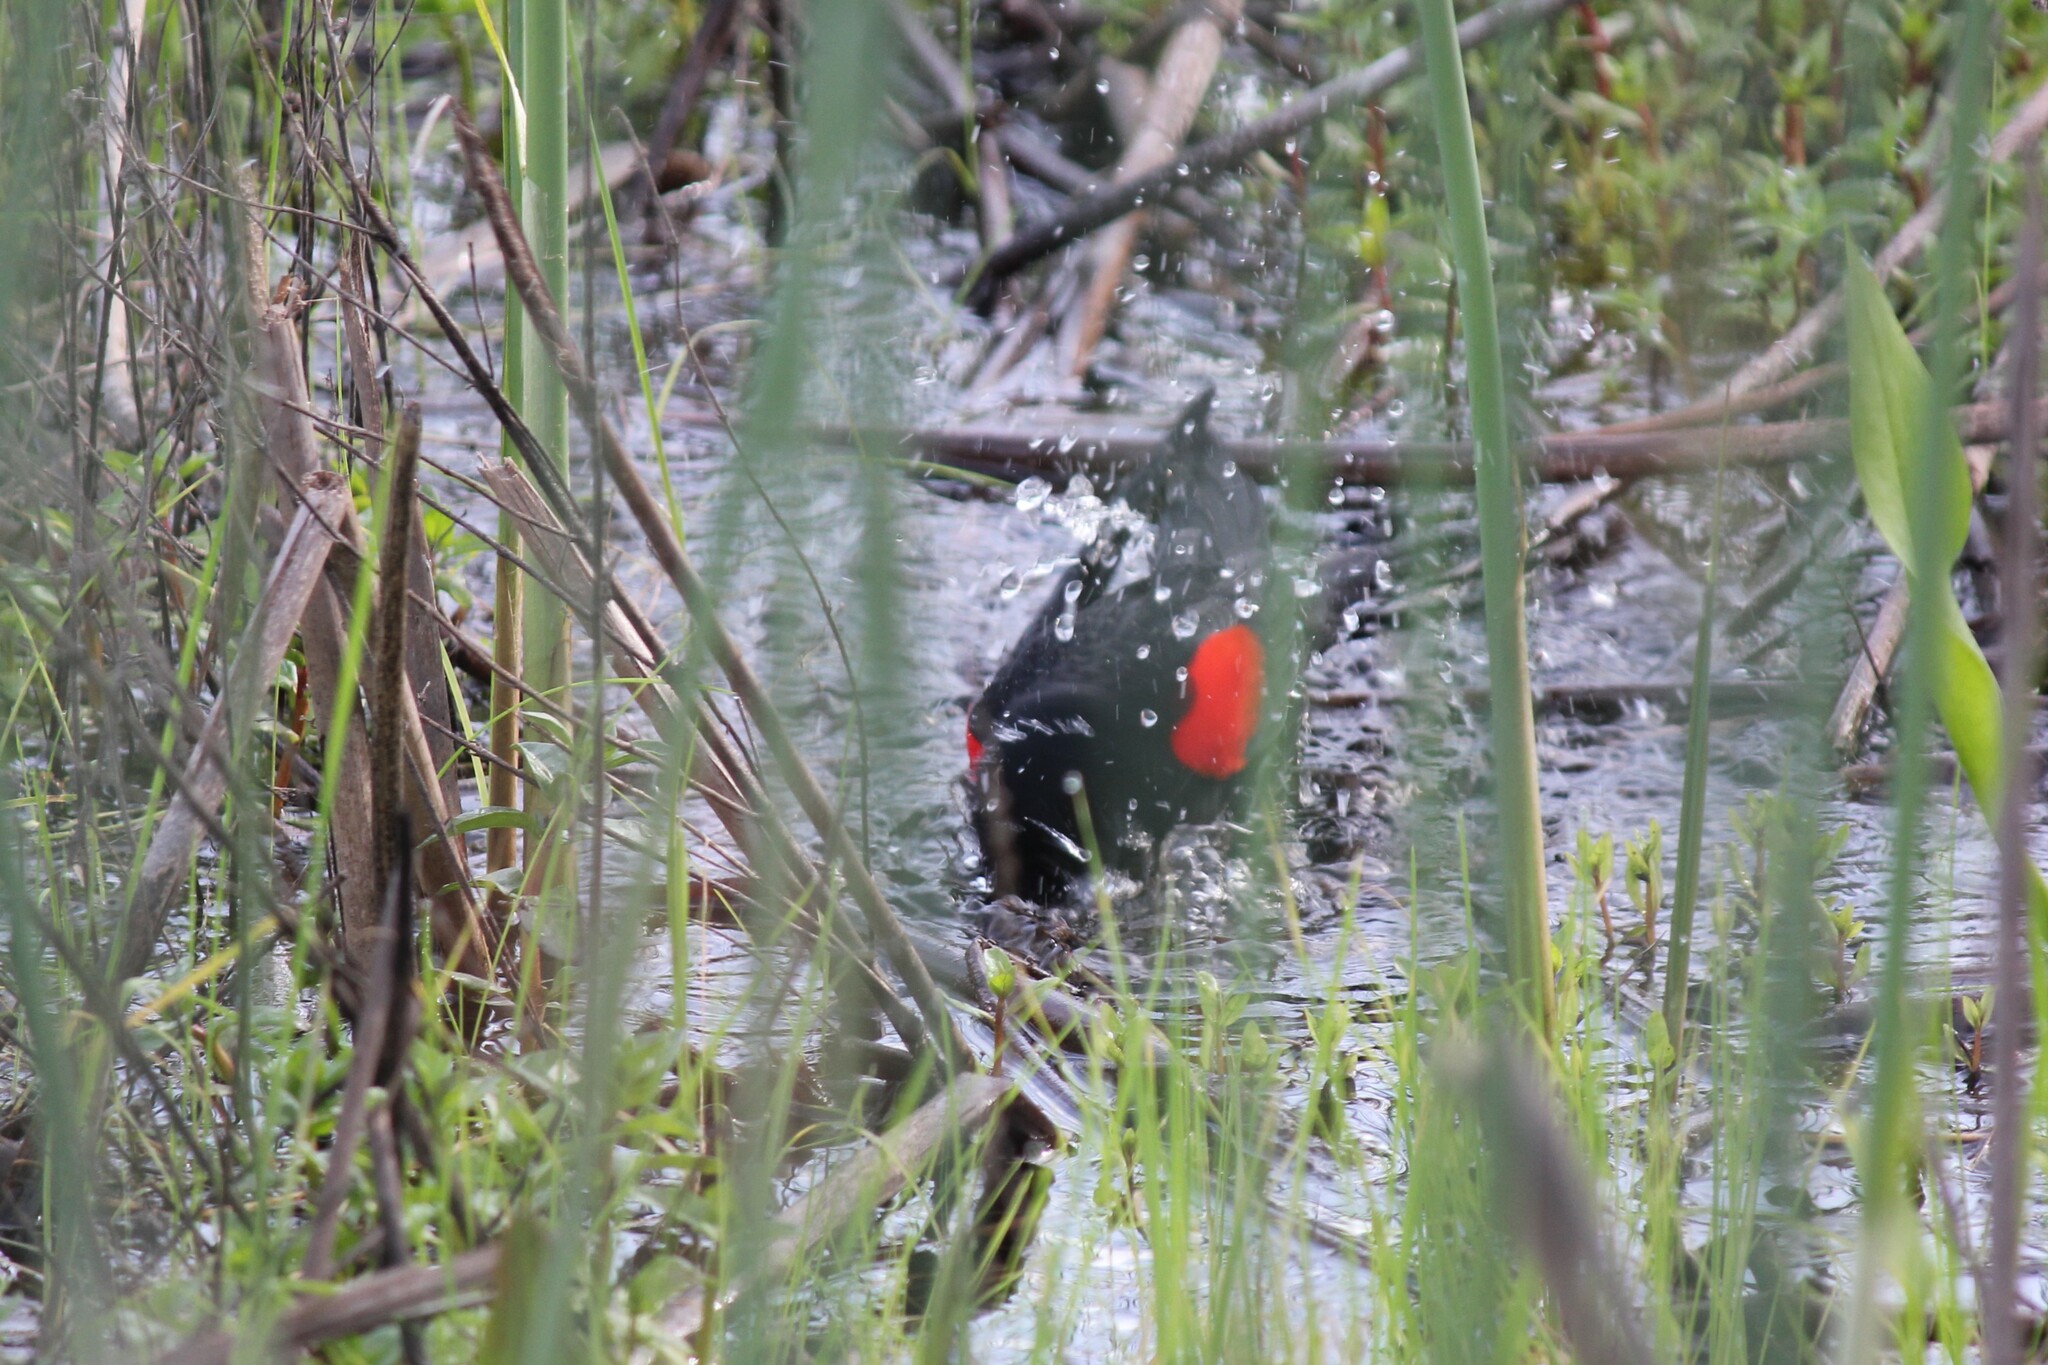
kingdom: Animalia
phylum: Chordata
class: Aves
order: Passeriformes
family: Icteridae
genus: Agelaius
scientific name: Agelaius phoeniceus
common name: Red-winged blackbird
